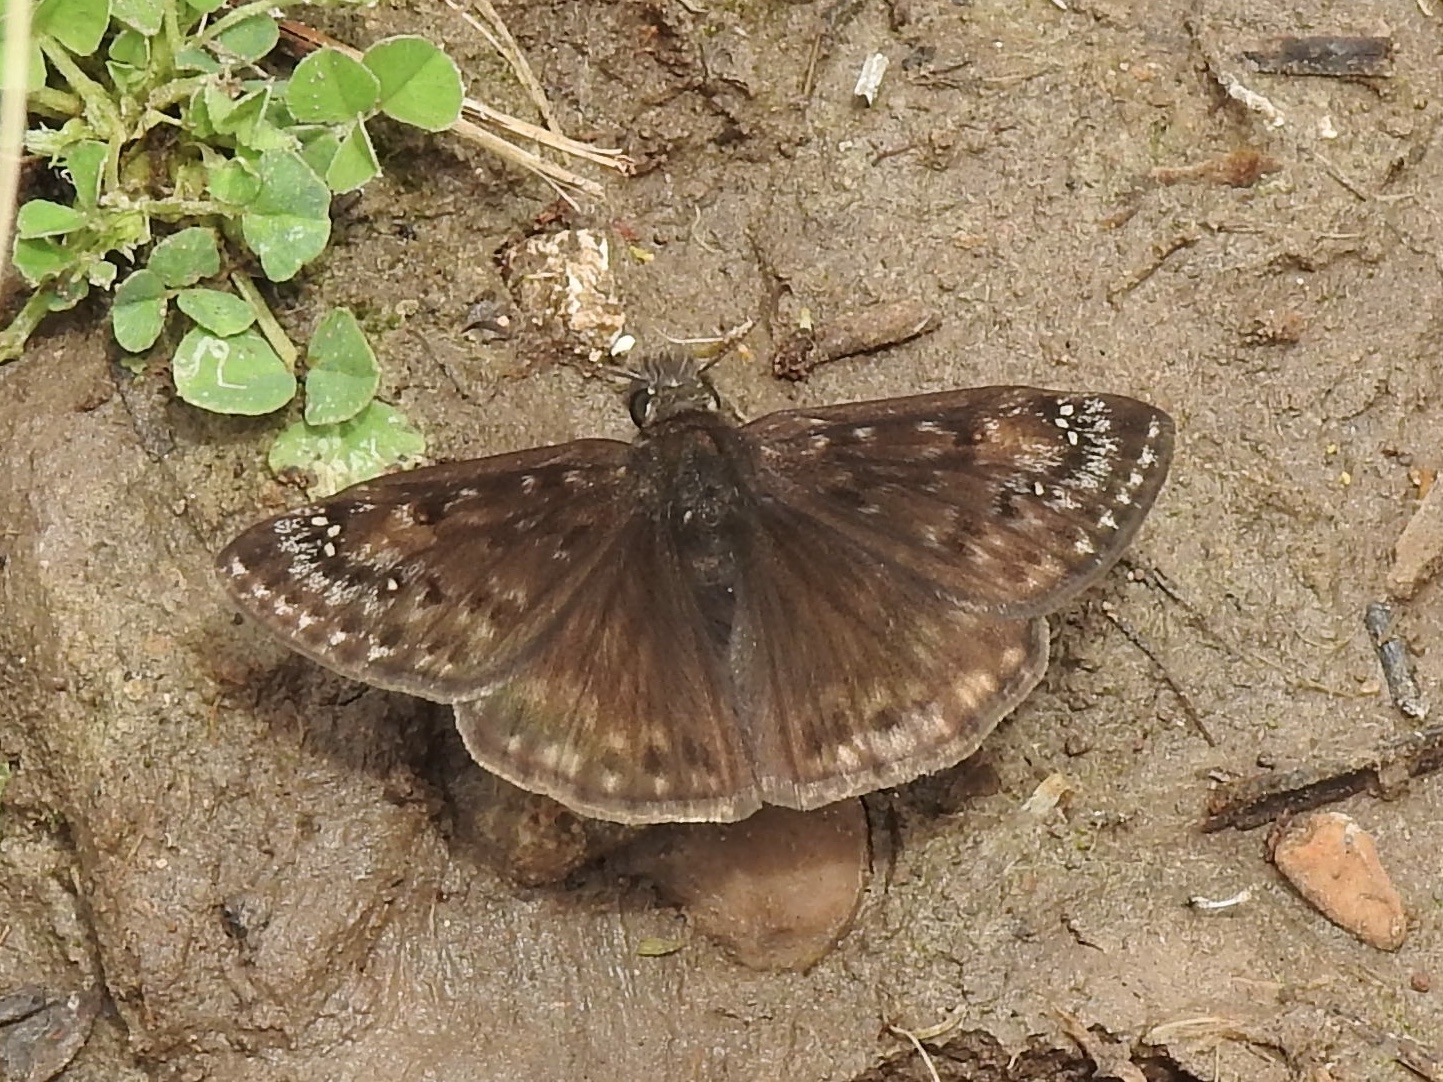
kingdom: Animalia
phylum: Arthropoda
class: Insecta
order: Lepidoptera
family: Hesperiidae
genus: Erynnis
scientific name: Erynnis horatius
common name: Horace's duskywing
